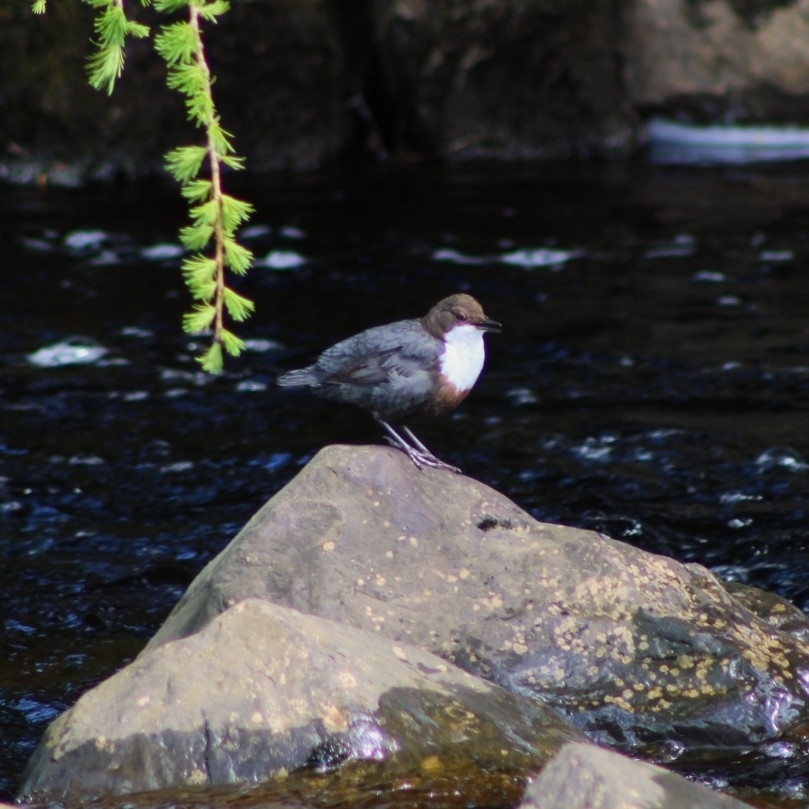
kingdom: Animalia
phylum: Chordata
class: Aves
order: Passeriformes
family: Cinclidae
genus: Cinclus
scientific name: Cinclus cinclus
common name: White-throated dipper
